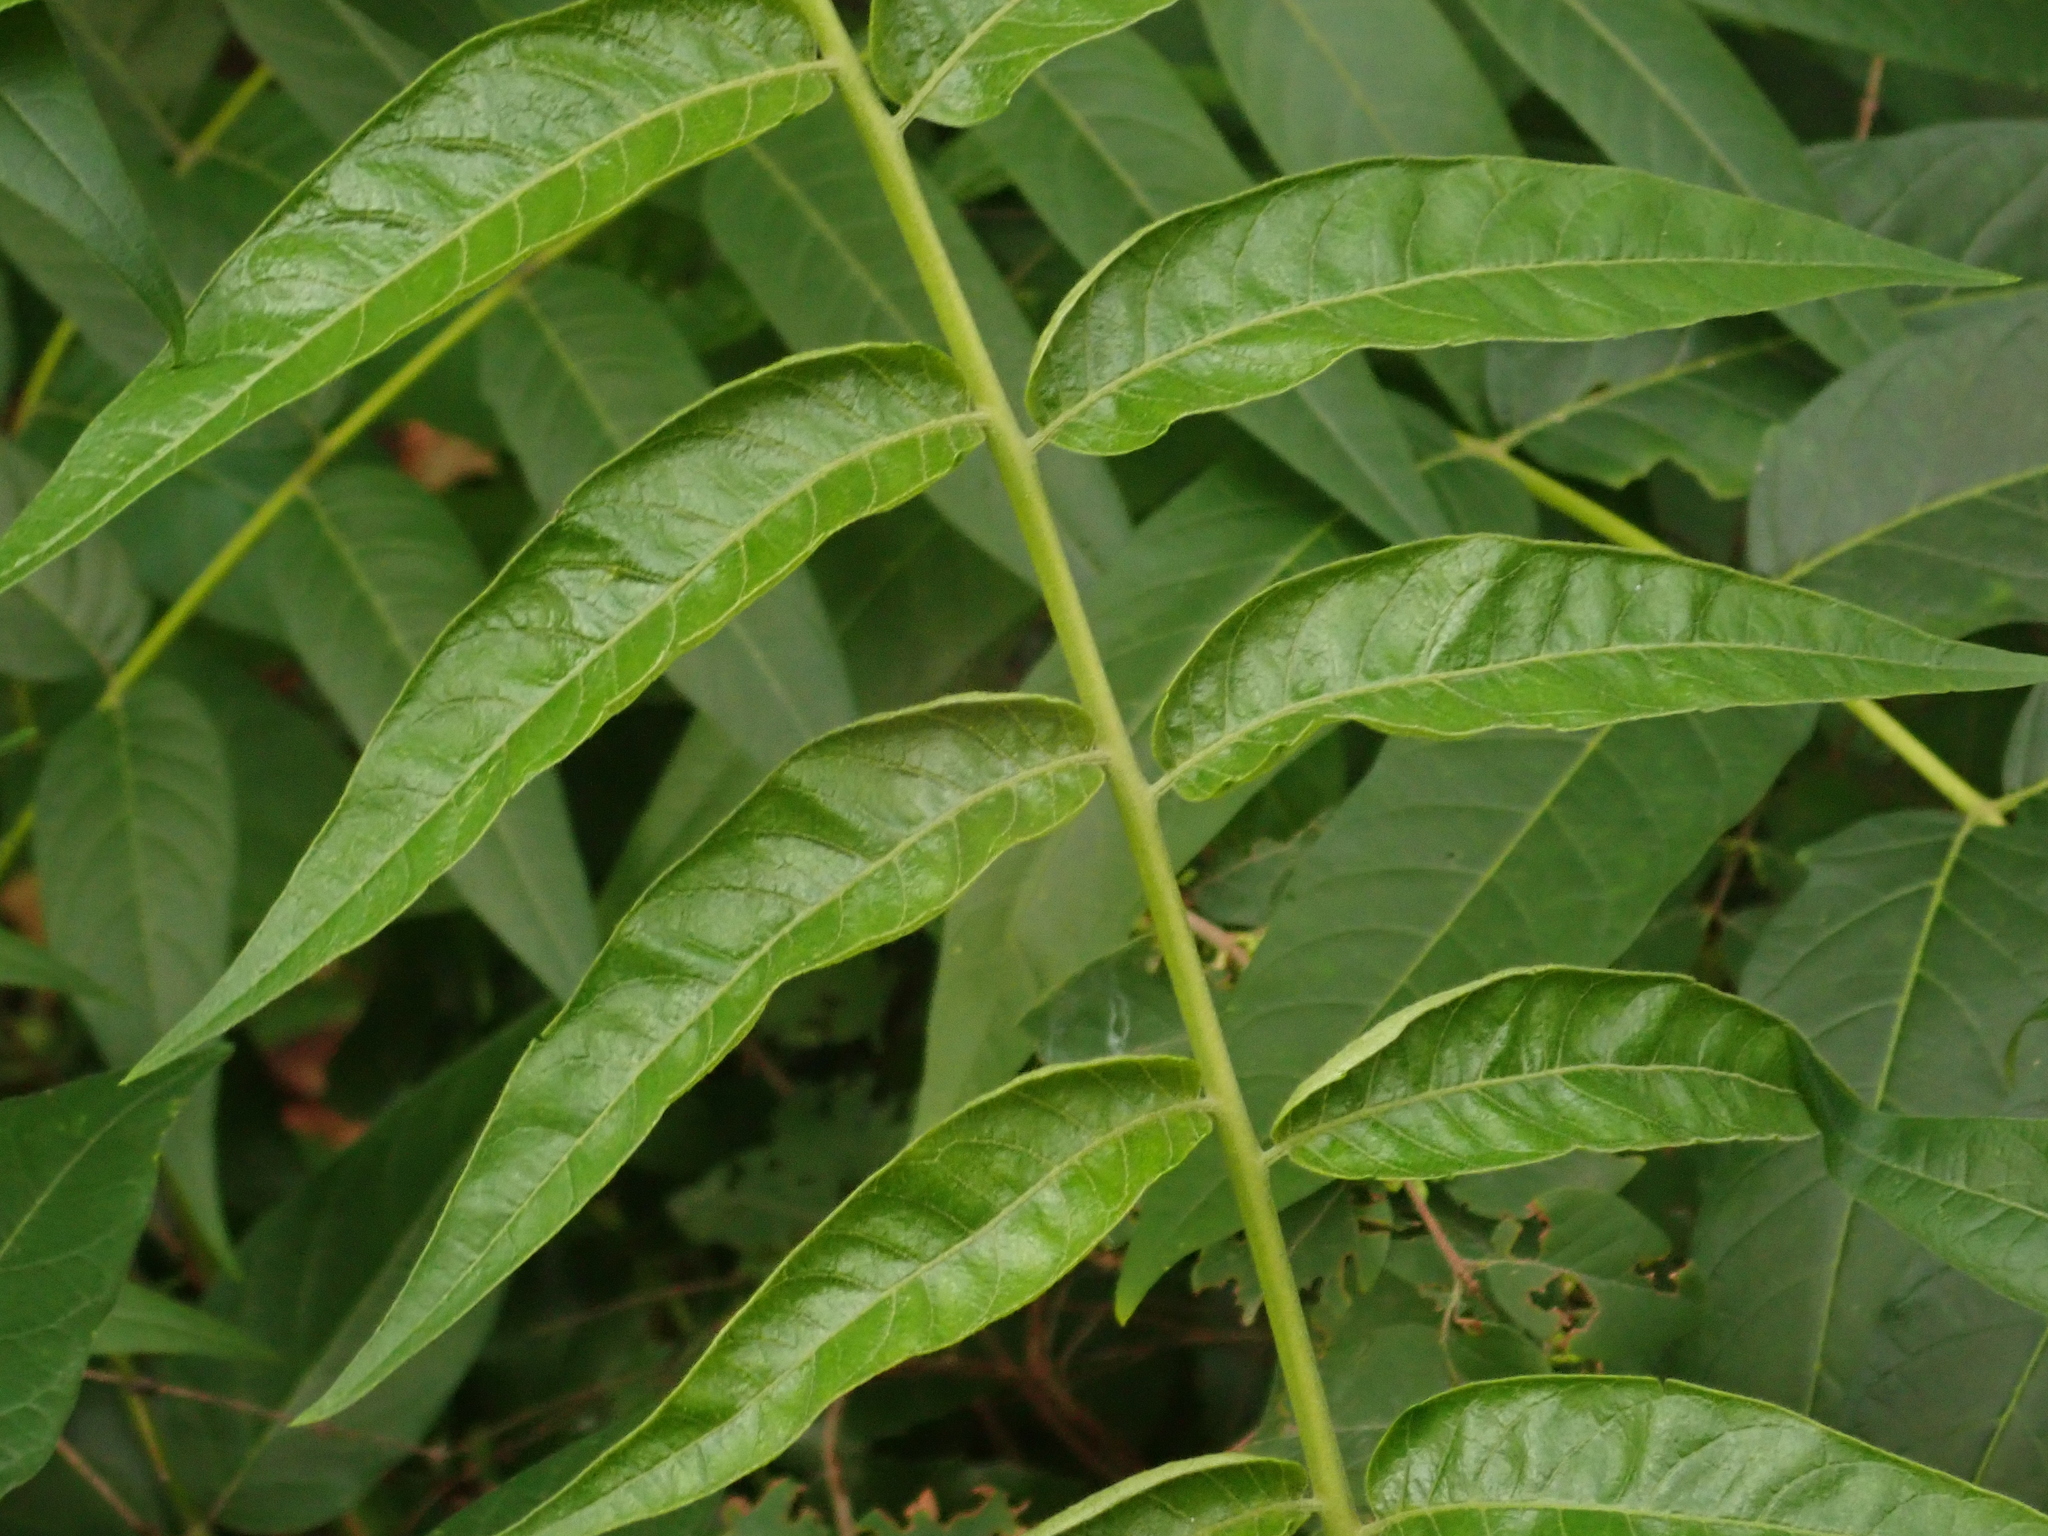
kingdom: Plantae
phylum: Tracheophyta
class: Magnoliopsida
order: Sapindales
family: Simaroubaceae
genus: Ailanthus
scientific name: Ailanthus altissima
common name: Tree-of-heaven
